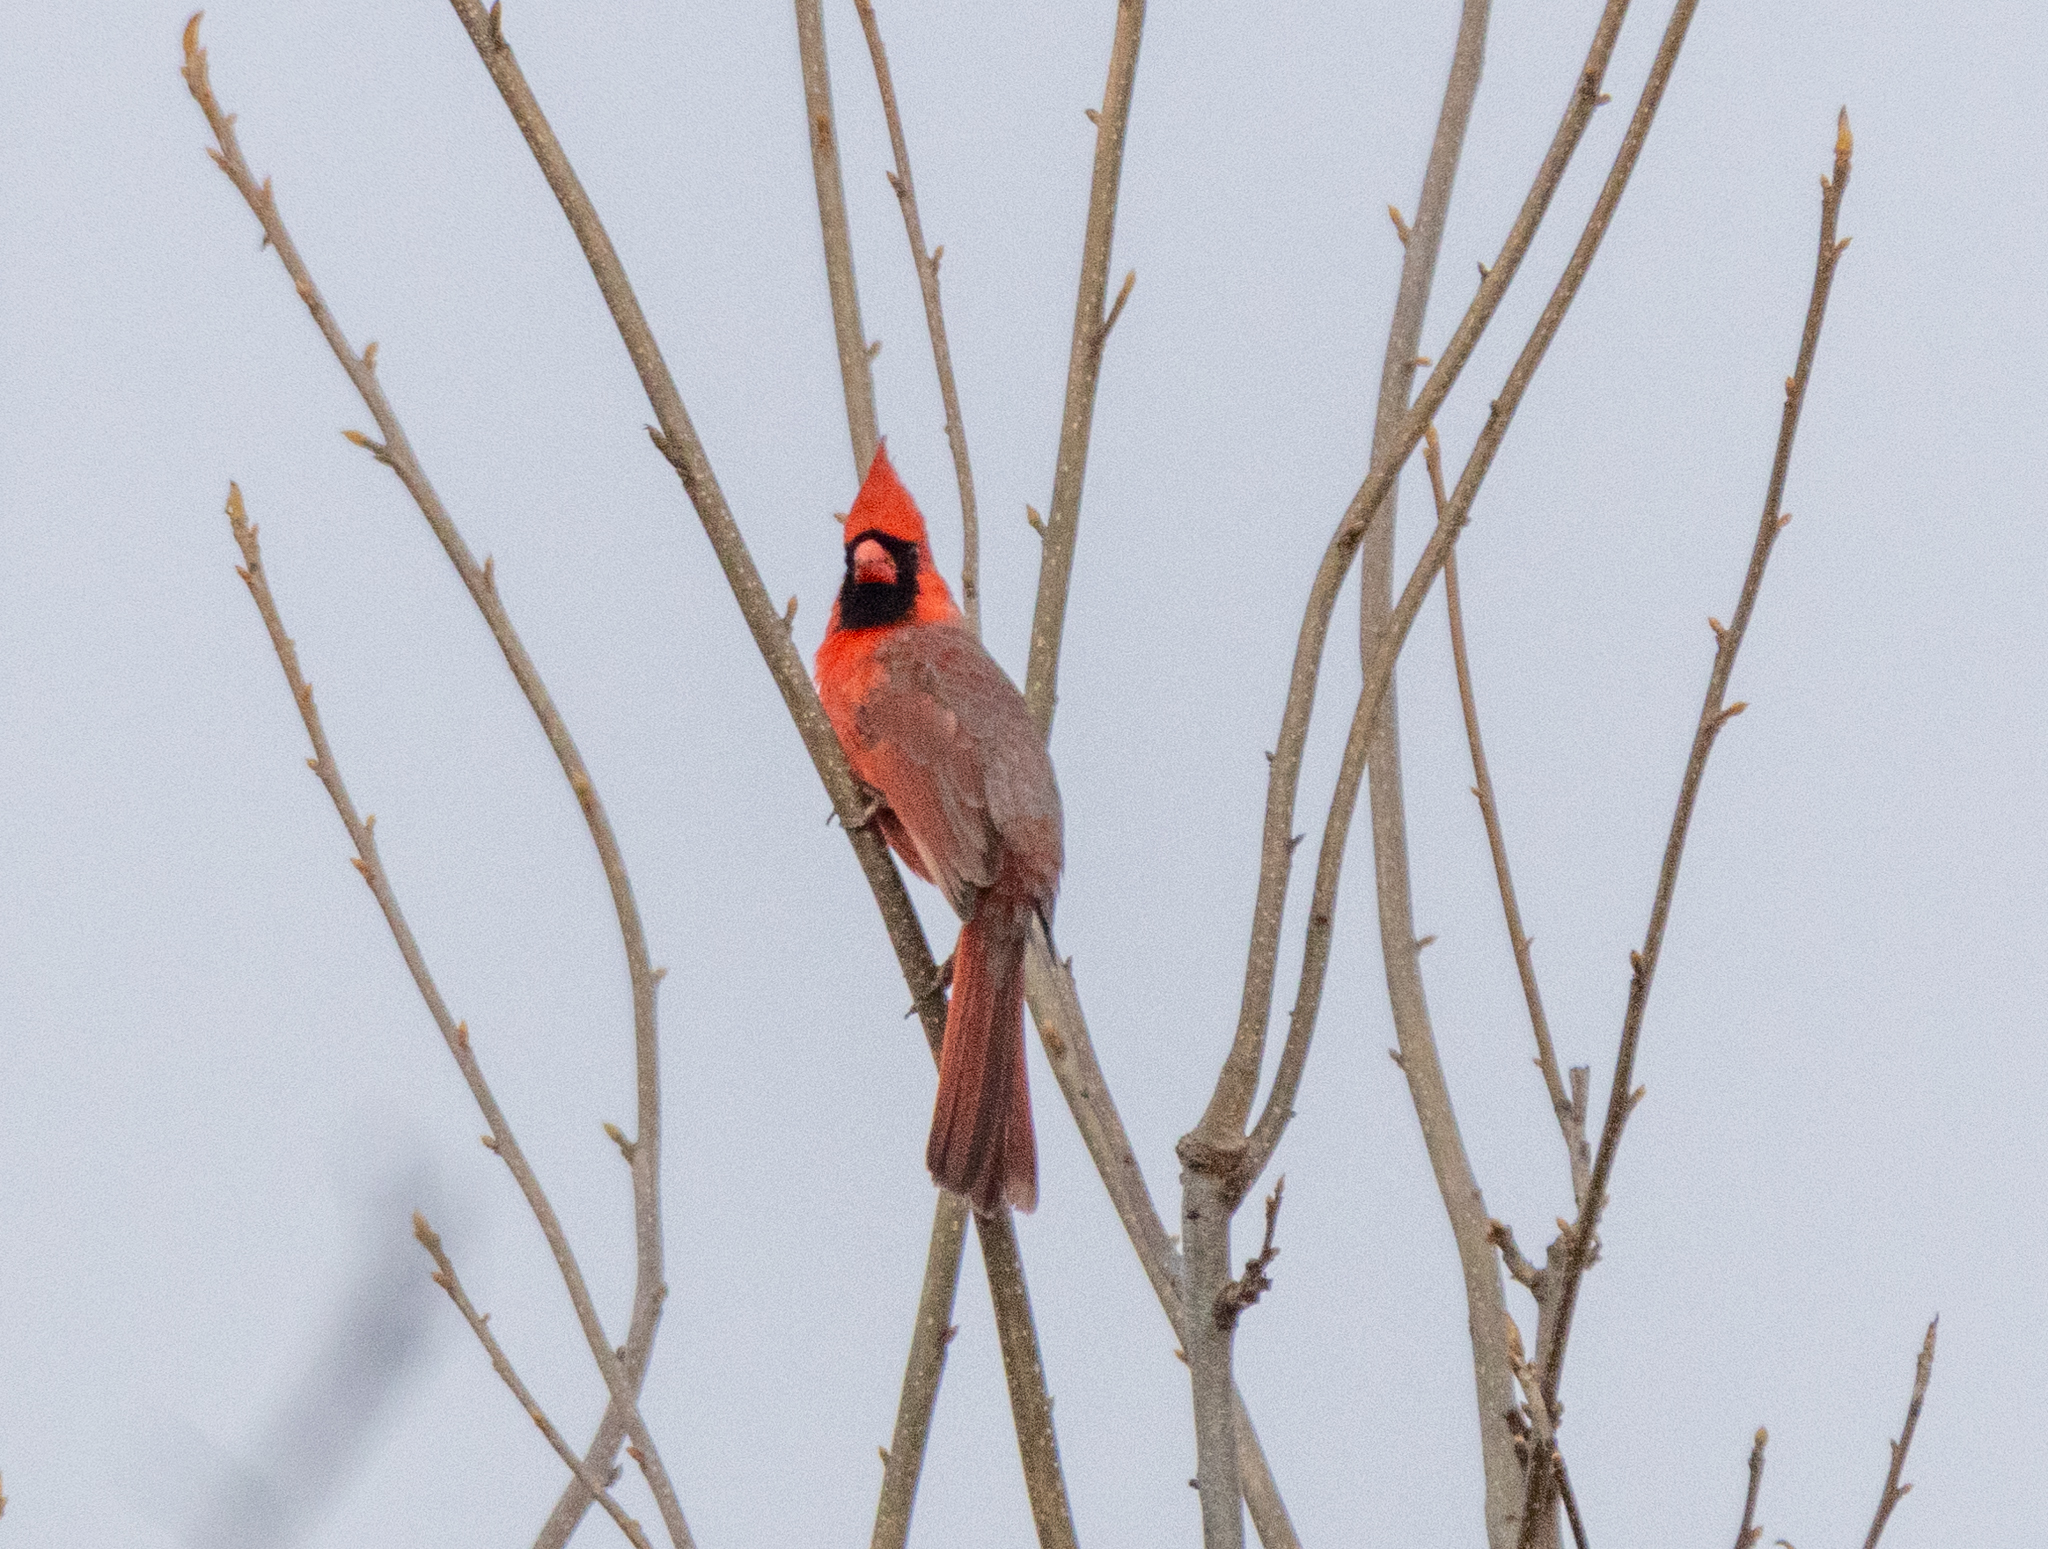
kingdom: Animalia
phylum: Chordata
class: Aves
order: Passeriformes
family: Cardinalidae
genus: Cardinalis
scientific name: Cardinalis cardinalis
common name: Northern cardinal
